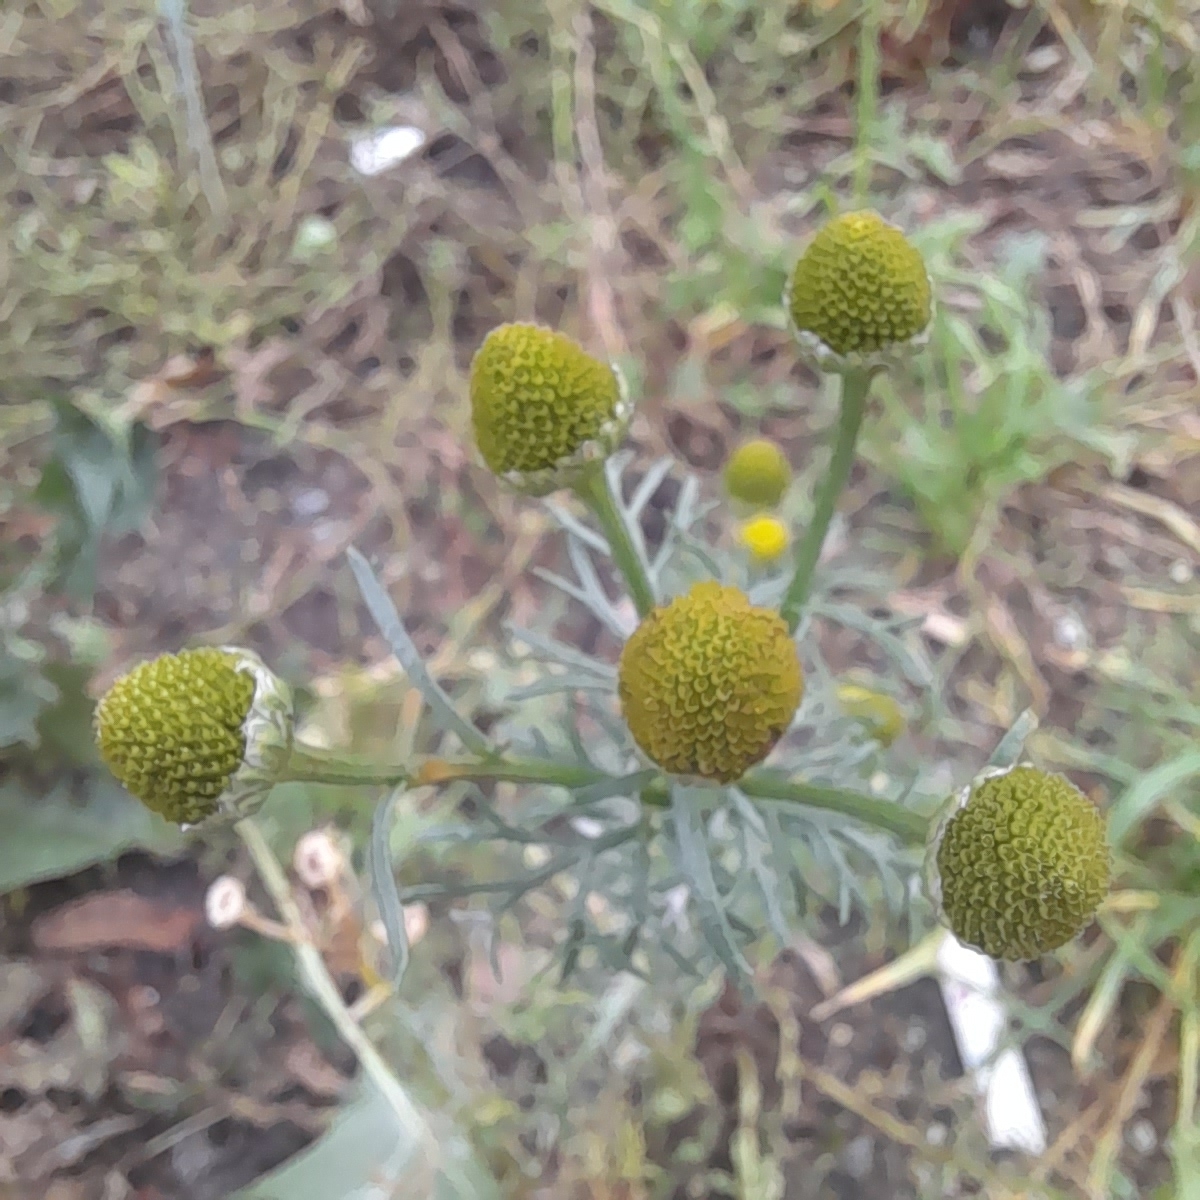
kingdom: Plantae
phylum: Tracheophyta
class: Magnoliopsida
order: Asterales
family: Asteraceae
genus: Matricaria
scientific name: Matricaria discoidea
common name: Disc mayweed
